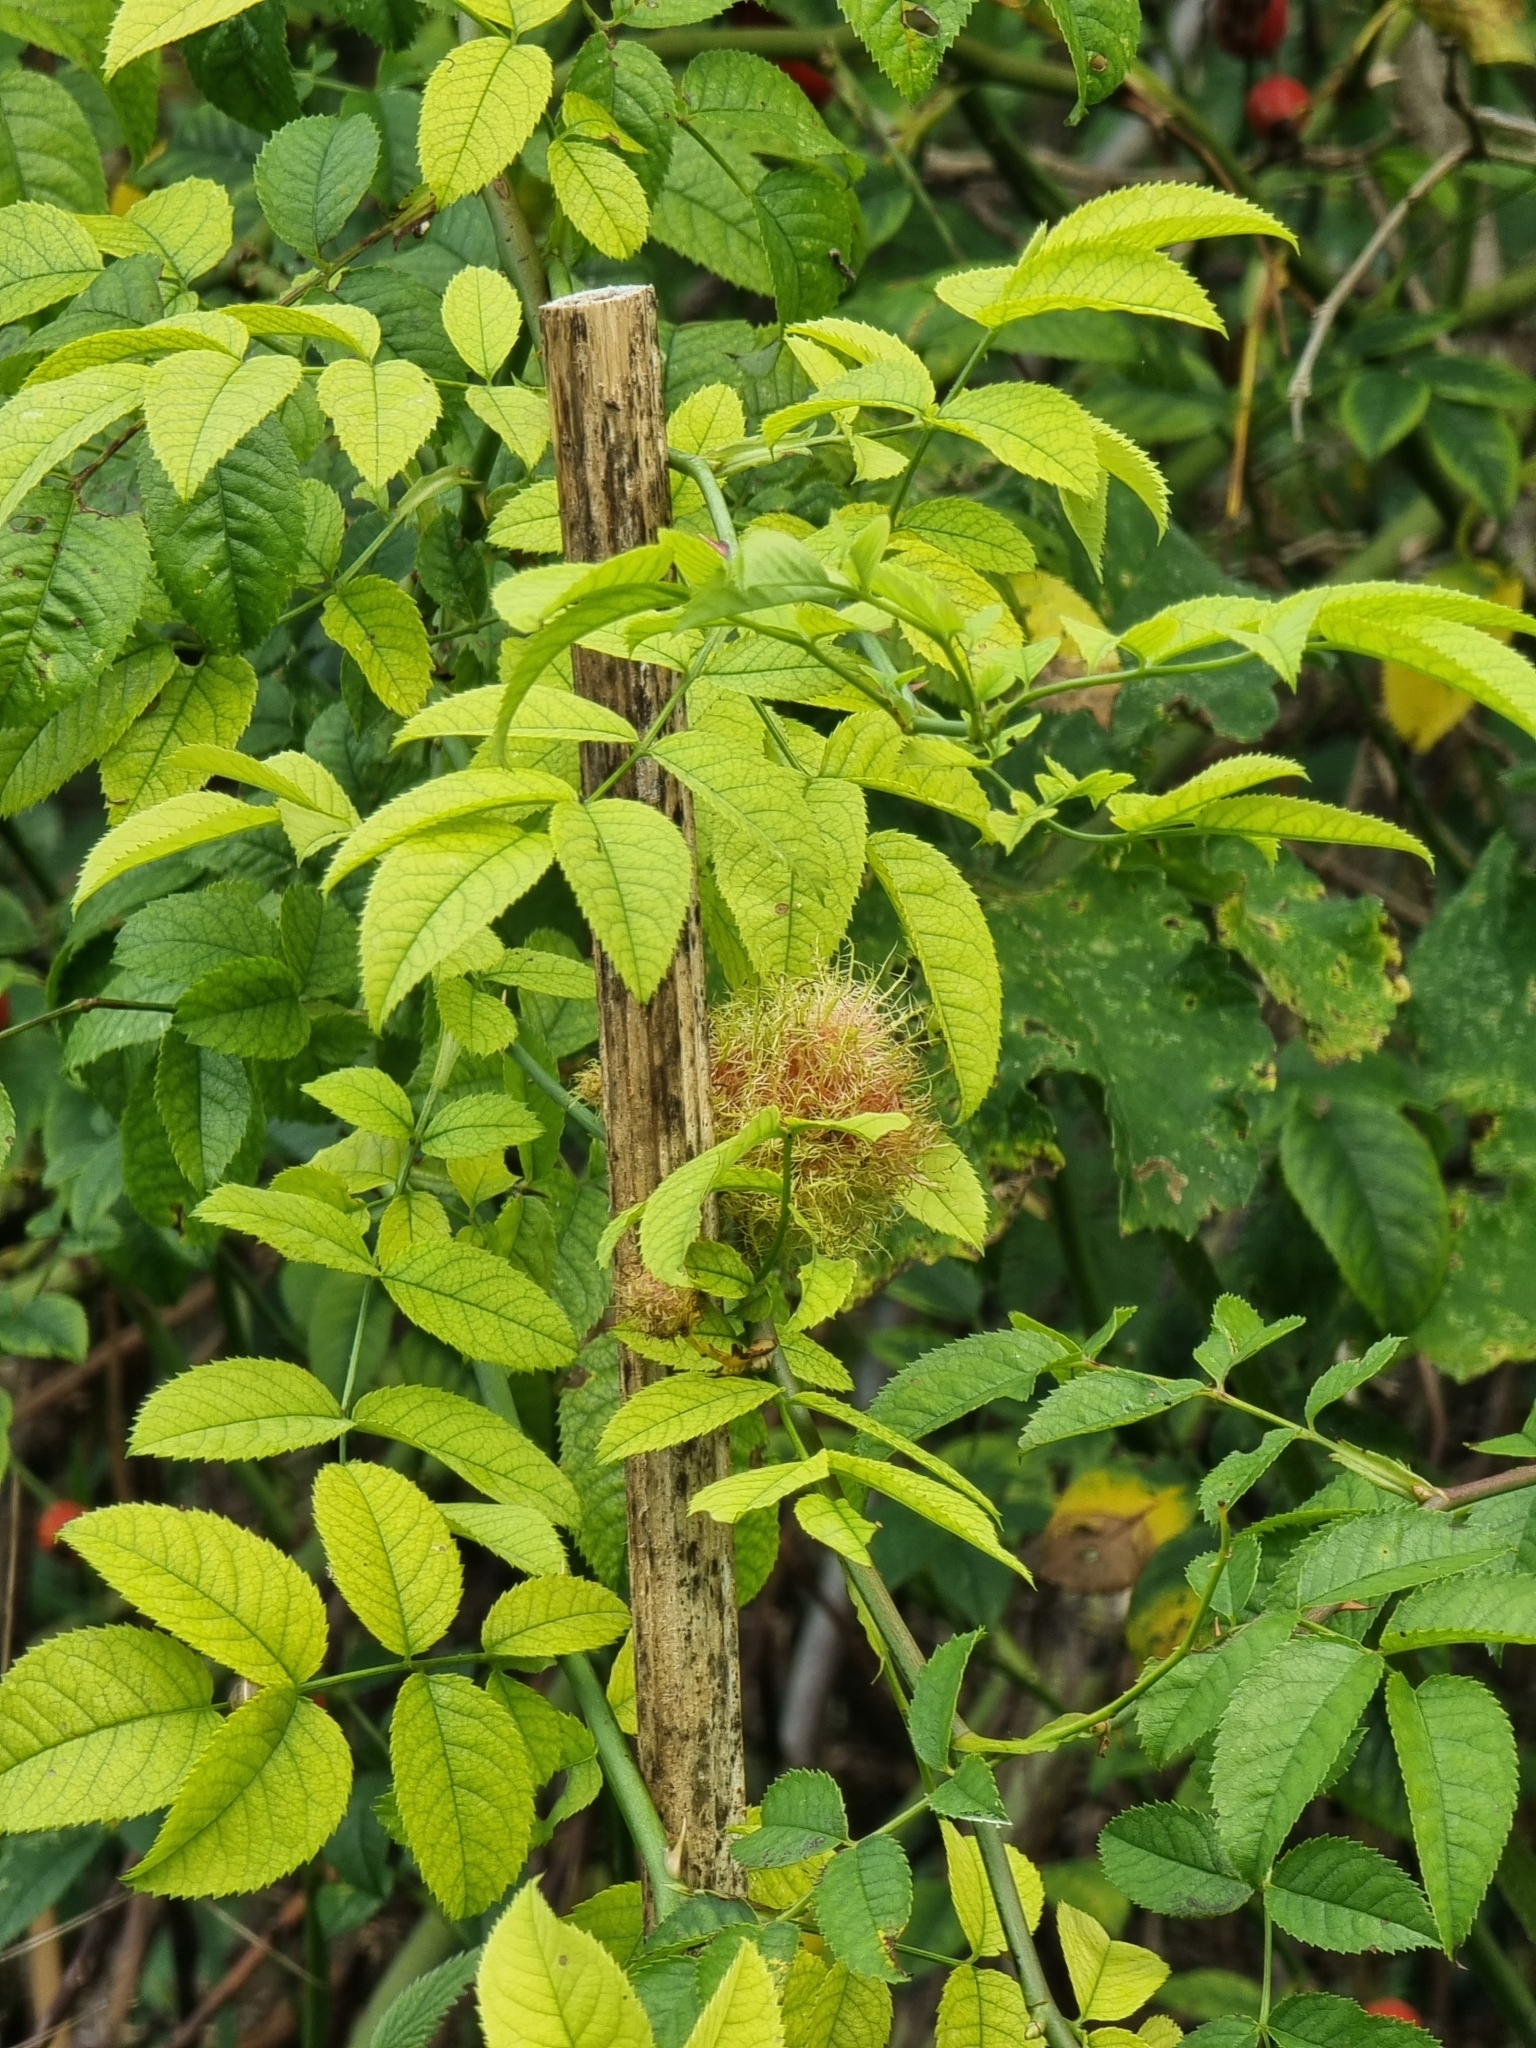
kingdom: Animalia
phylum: Arthropoda
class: Insecta
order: Hymenoptera
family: Cynipidae
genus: Diplolepis
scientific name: Diplolepis rosae
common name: Bedeguar gall
